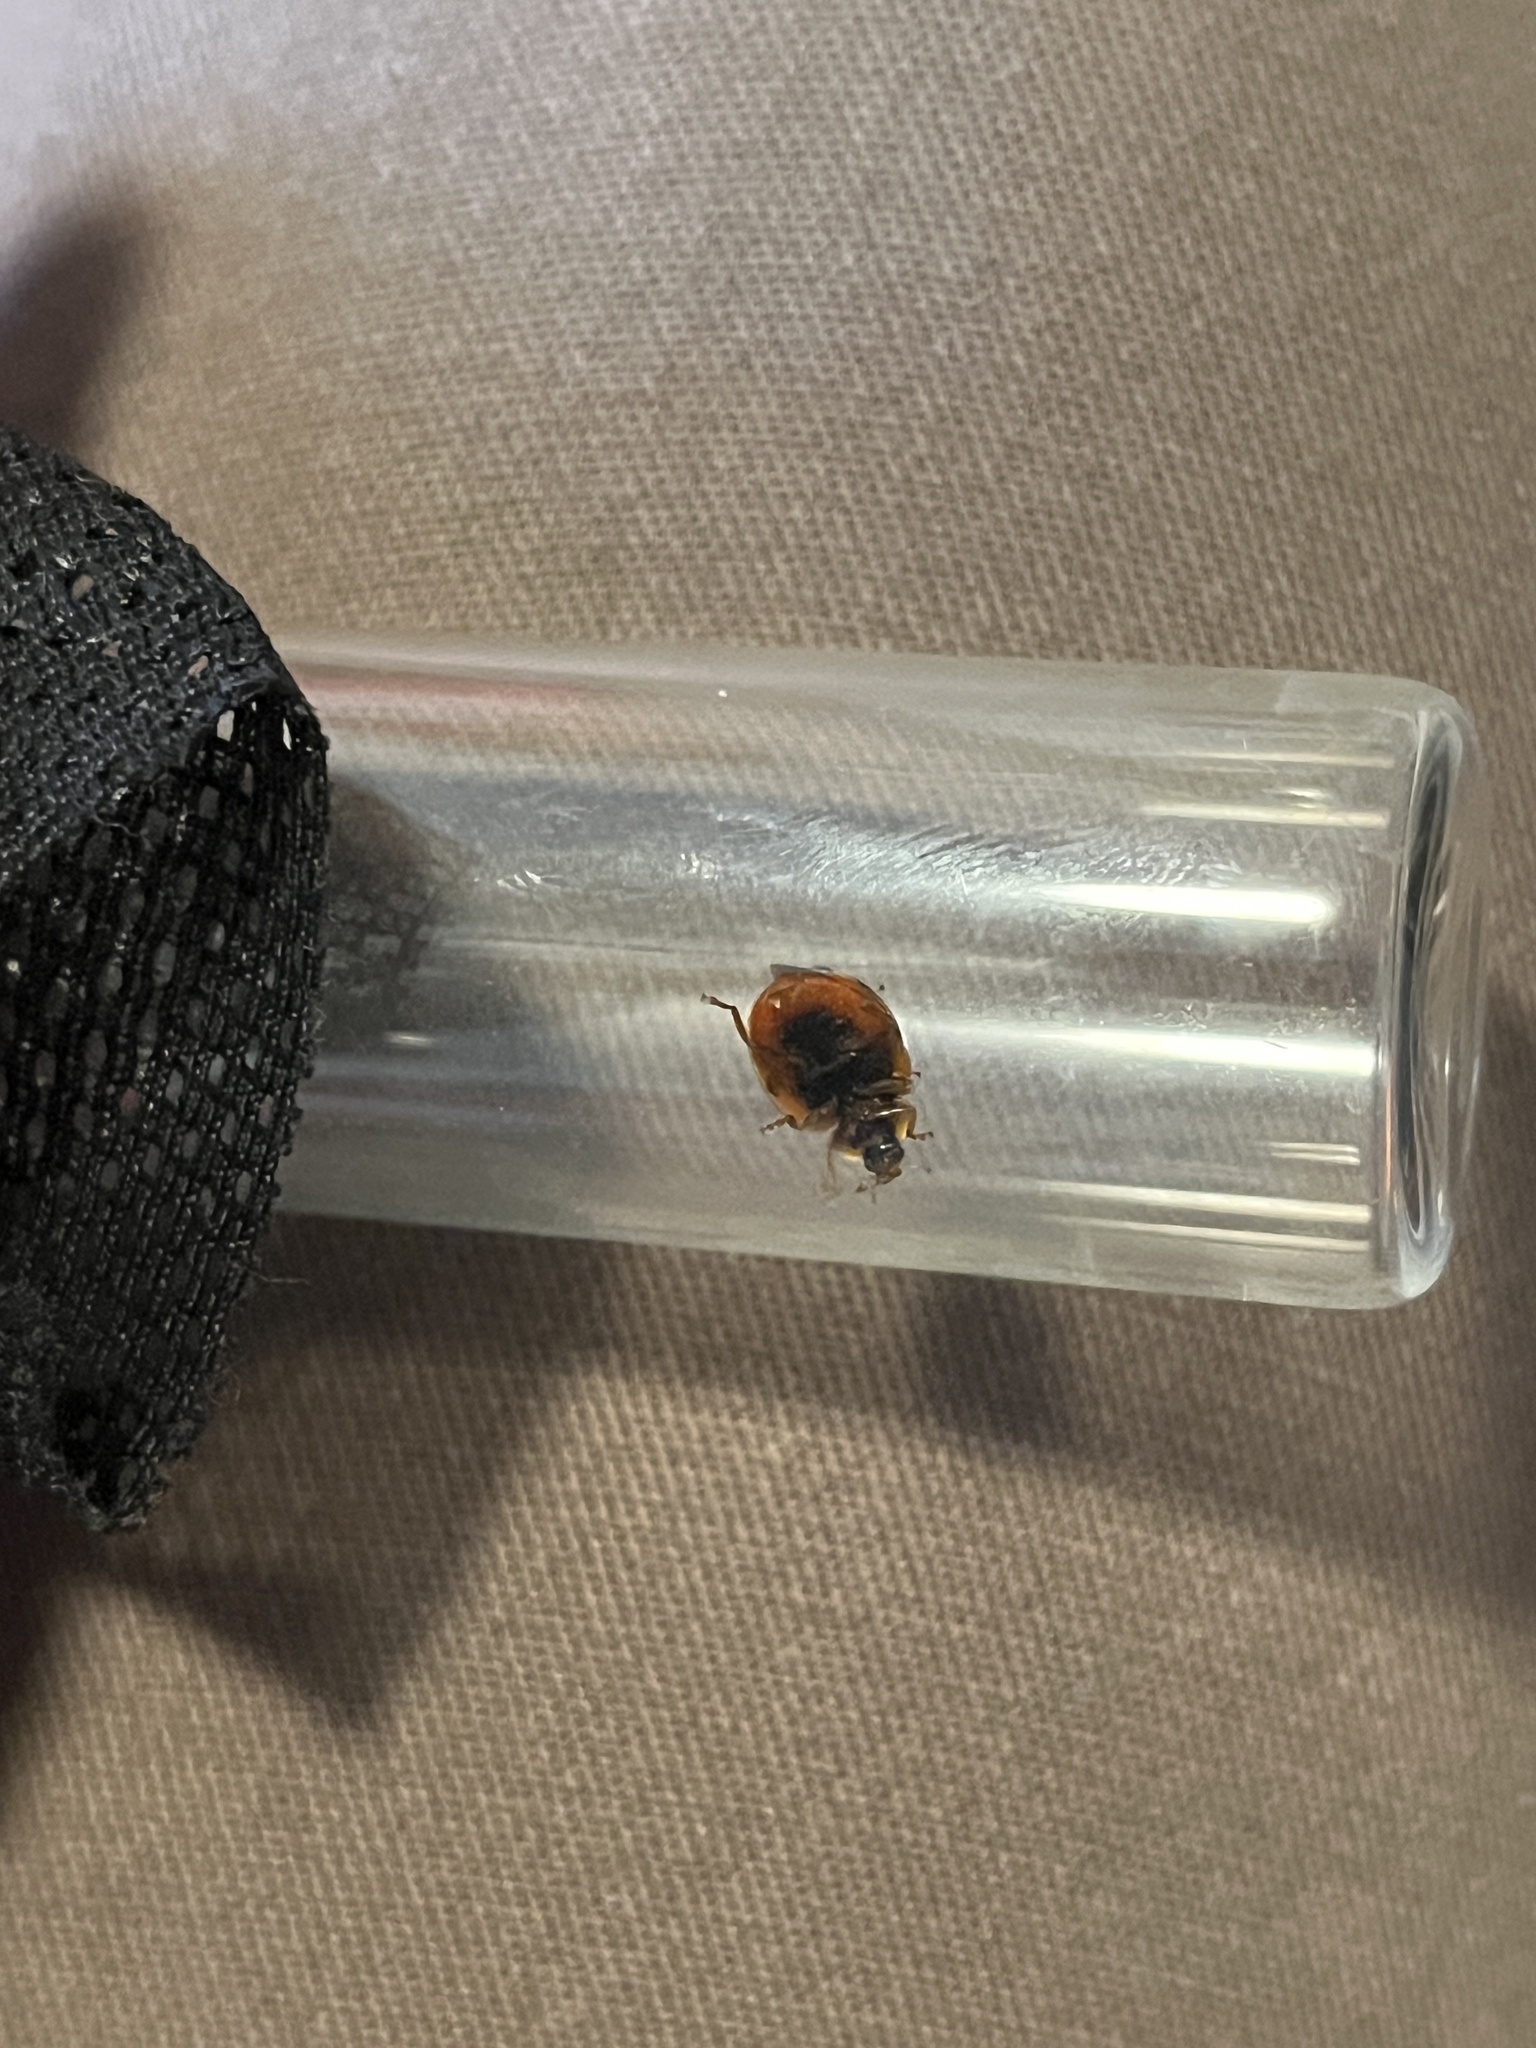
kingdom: Animalia
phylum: Arthropoda
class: Insecta
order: Coleoptera
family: Coccinellidae
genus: Harmonia
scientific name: Harmonia axyridis
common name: Harlequin ladybird
